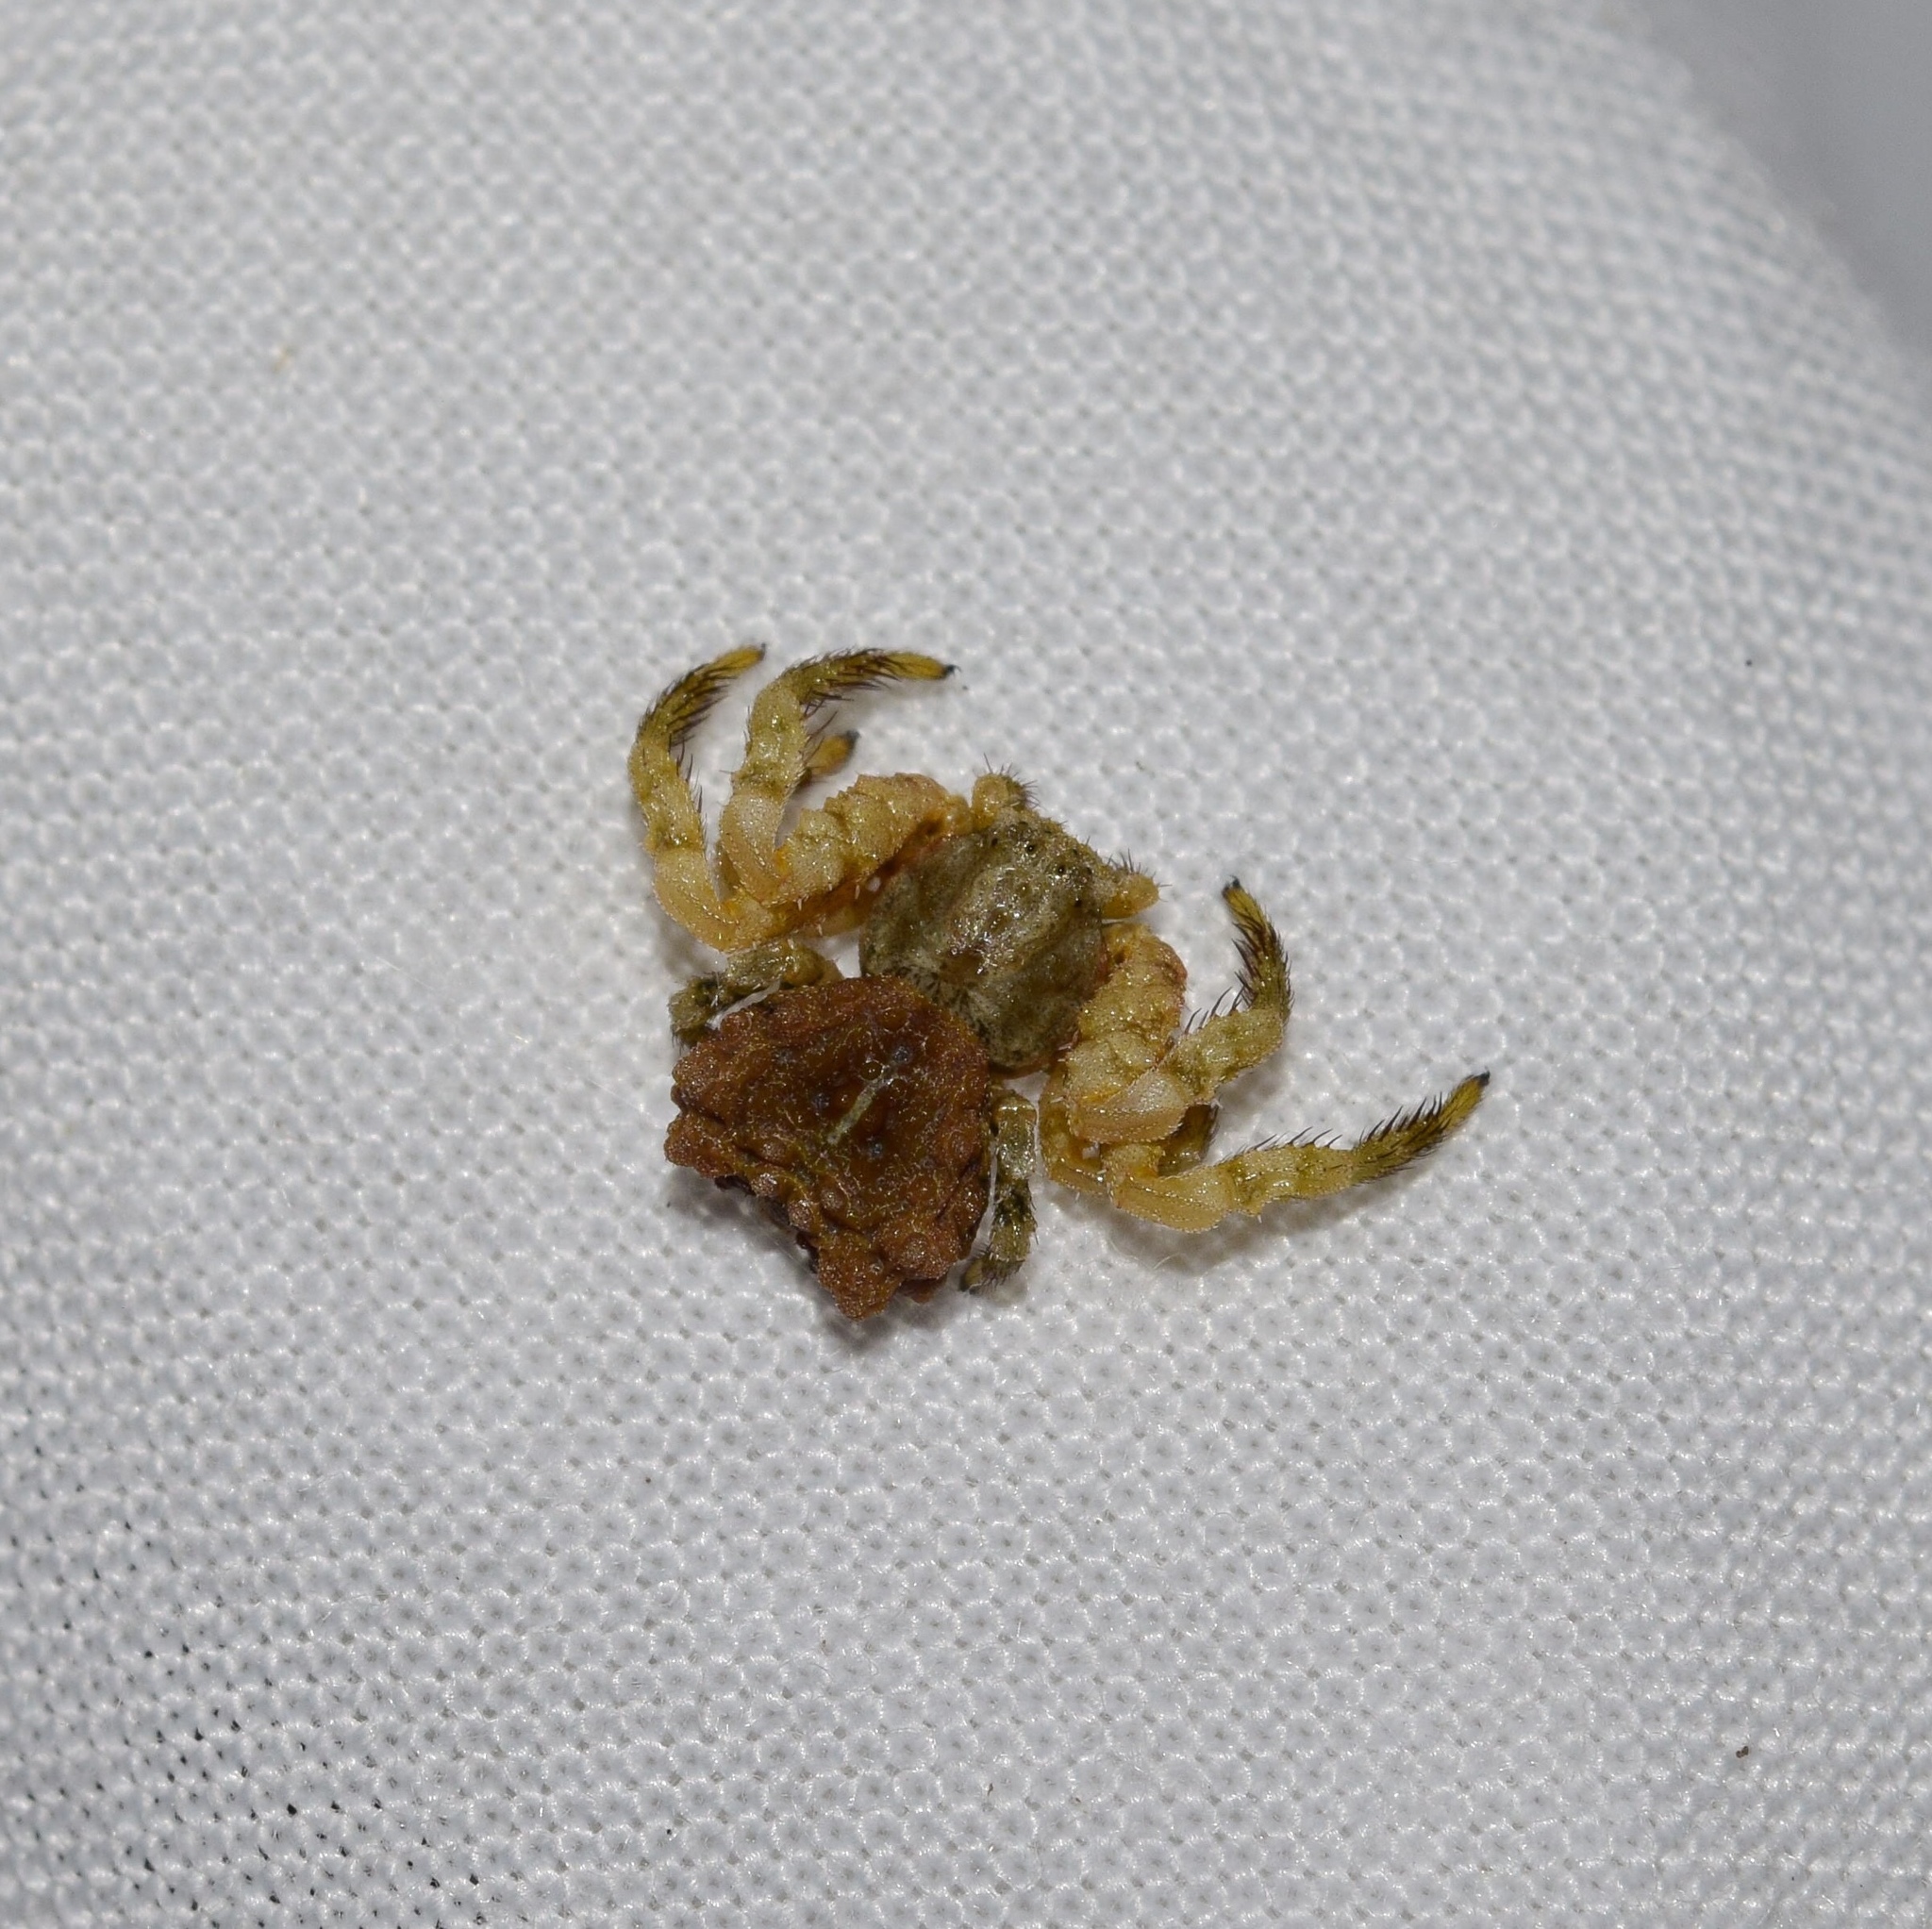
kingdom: Animalia
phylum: Arthropoda
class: Arachnida
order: Araneae
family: Thomisidae
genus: Phrynarachne
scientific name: Phrynarachne rugosa
